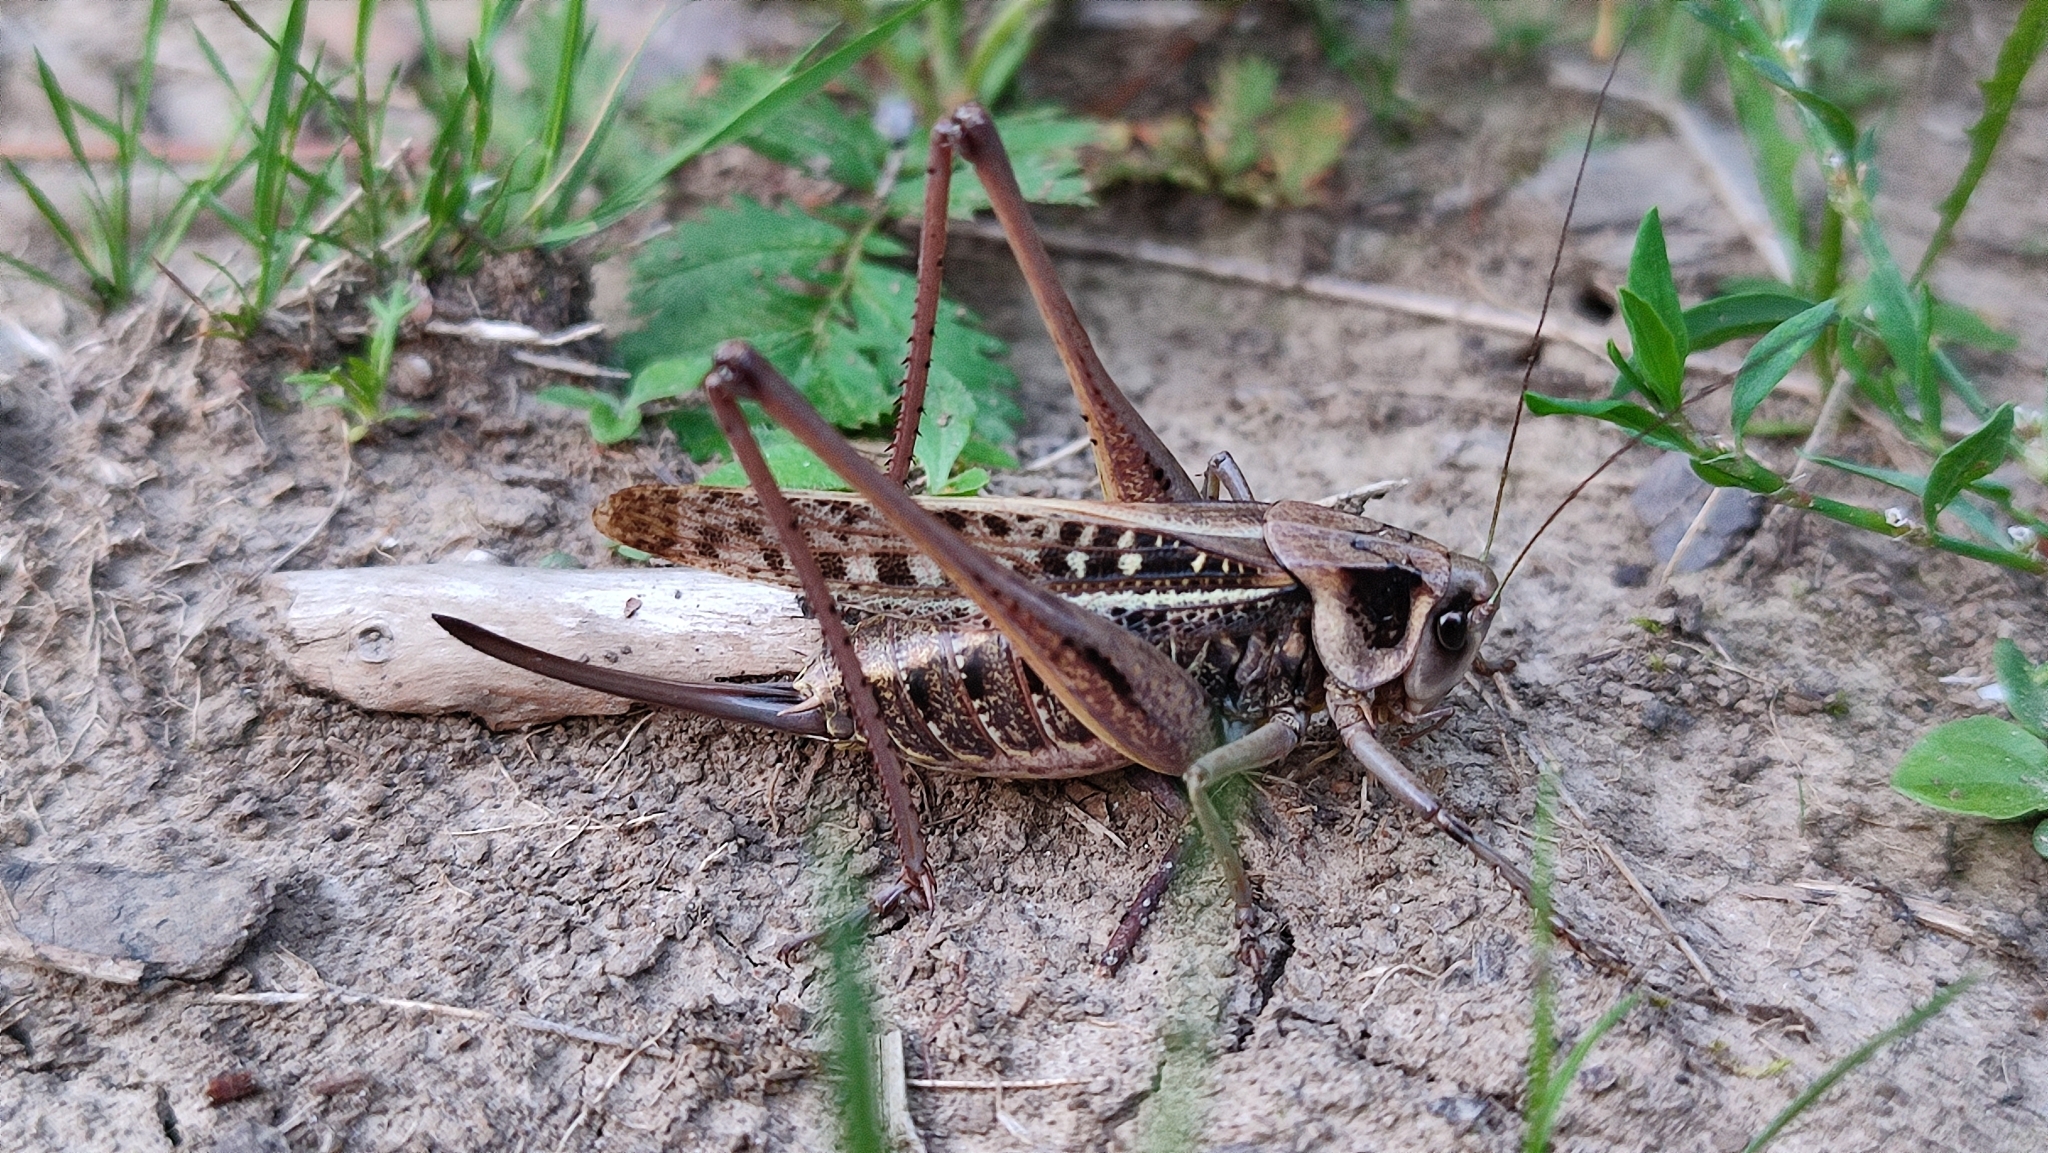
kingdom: Animalia
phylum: Arthropoda
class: Insecta
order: Orthoptera
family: Tettigoniidae
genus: Decticus
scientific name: Decticus verrucivorus
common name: Wart-biter
